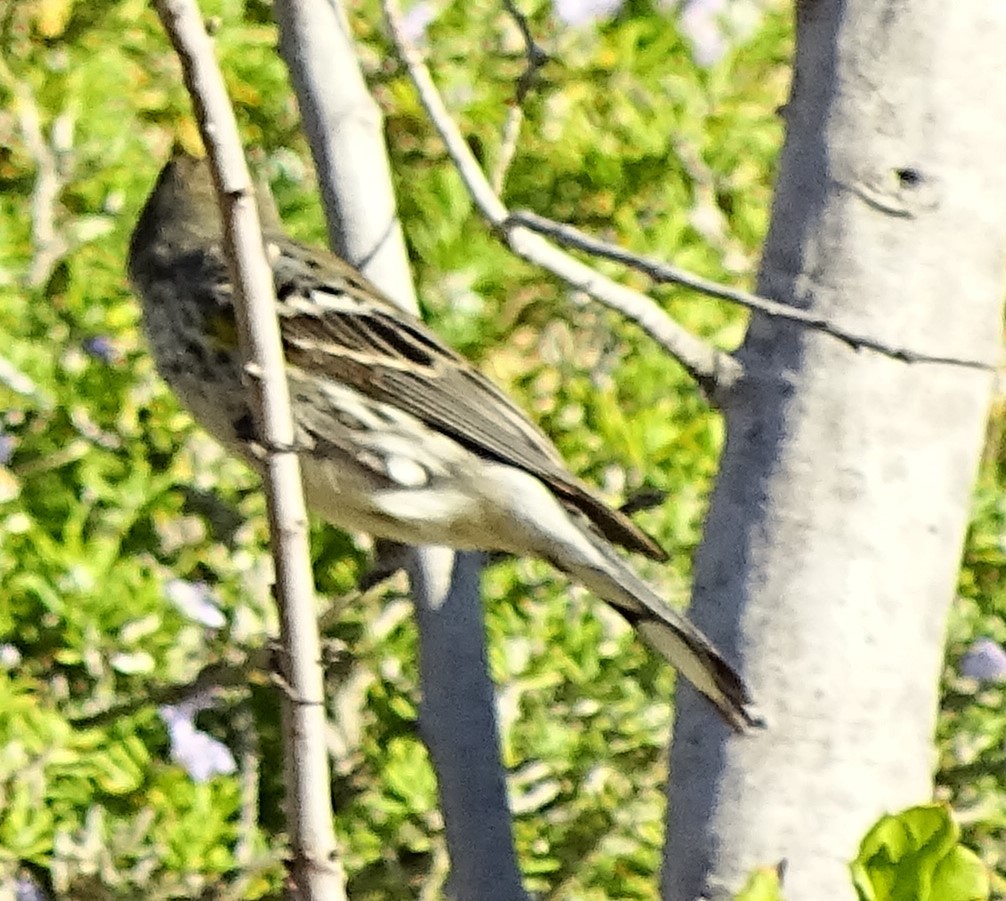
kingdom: Animalia
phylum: Chordata
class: Aves
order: Passeriformes
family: Parulidae
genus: Setophaga
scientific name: Setophaga coronata
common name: Myrtle warbler
